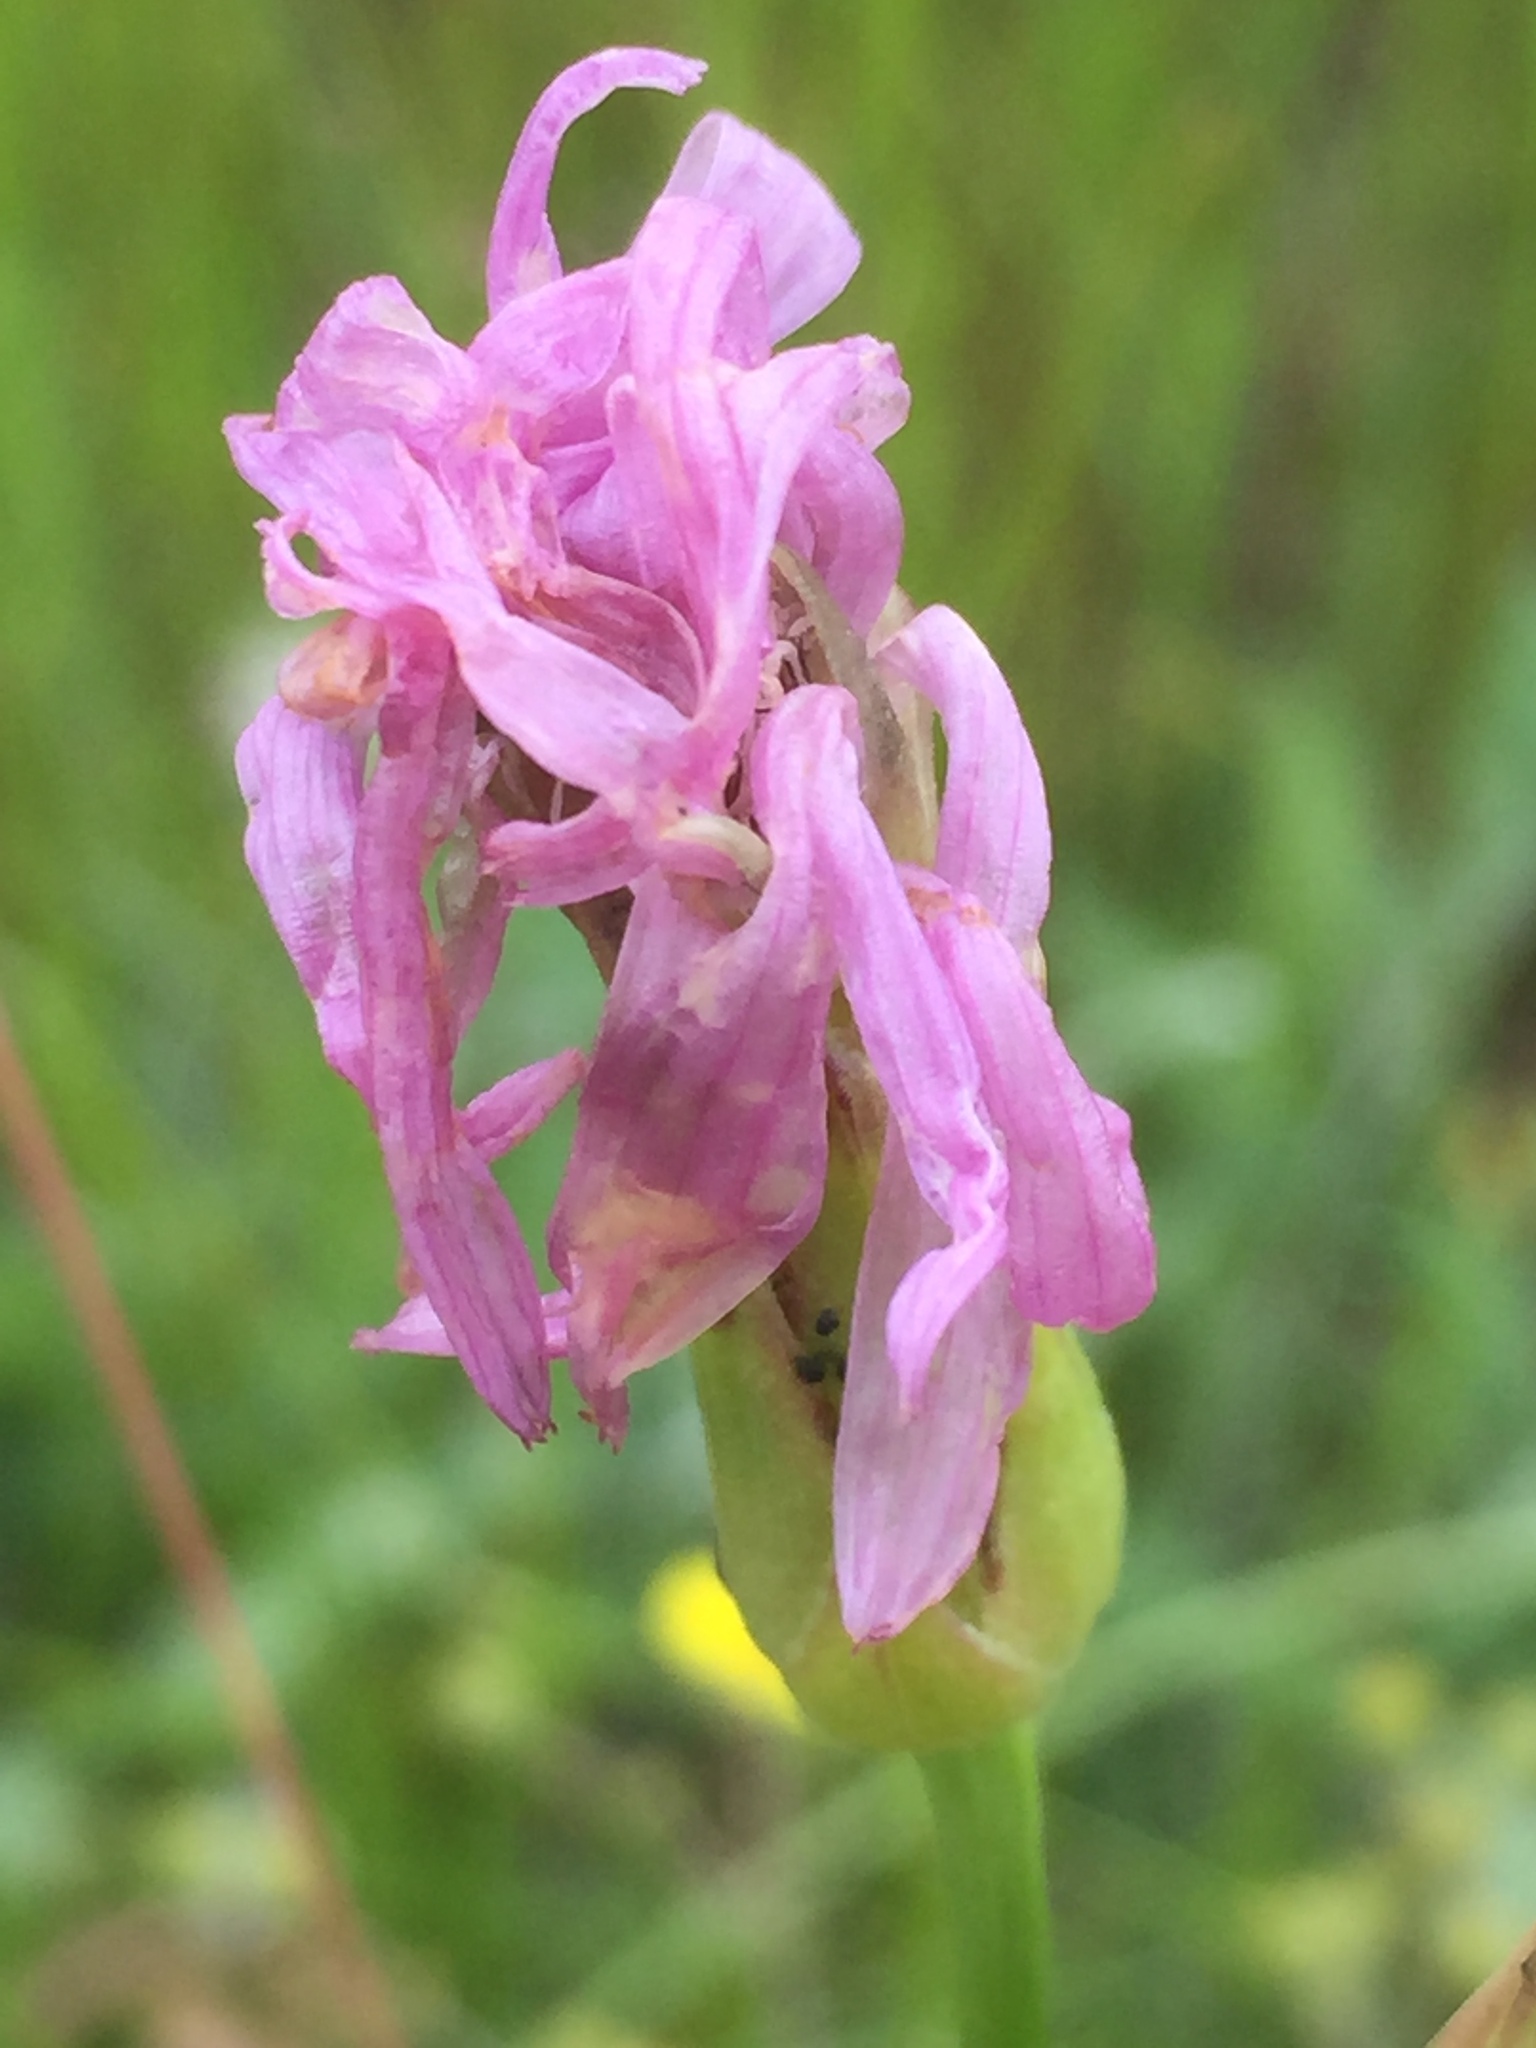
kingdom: Plantae
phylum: Tracheophyta
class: Magnoliopsida
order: Asterales
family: Asteraceae
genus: Scorzonera
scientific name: Scorzonera purpurea
